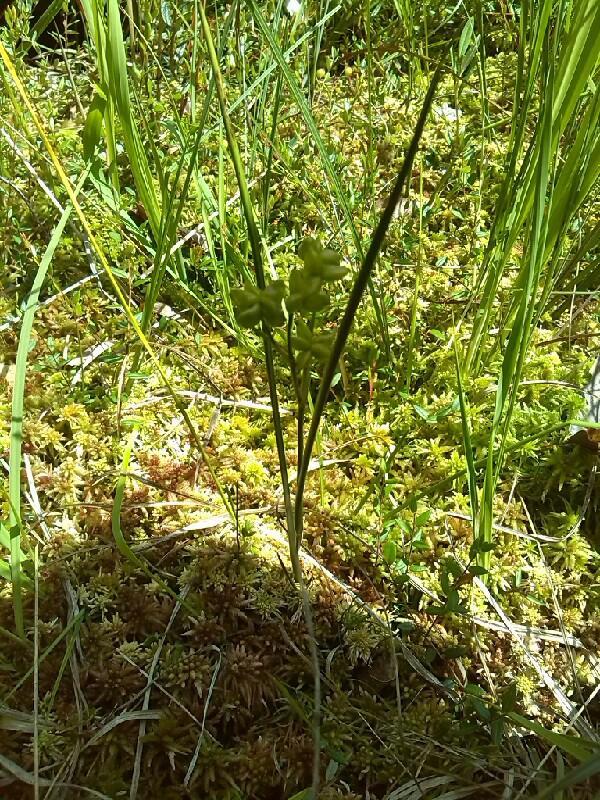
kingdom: Plantae
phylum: Tracheophyta
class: Liliopsida
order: Alismatales
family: Scheuchzeriaceae
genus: Scheuchzeria
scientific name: Scheuchzeria palustris
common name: Rannoch-rush
